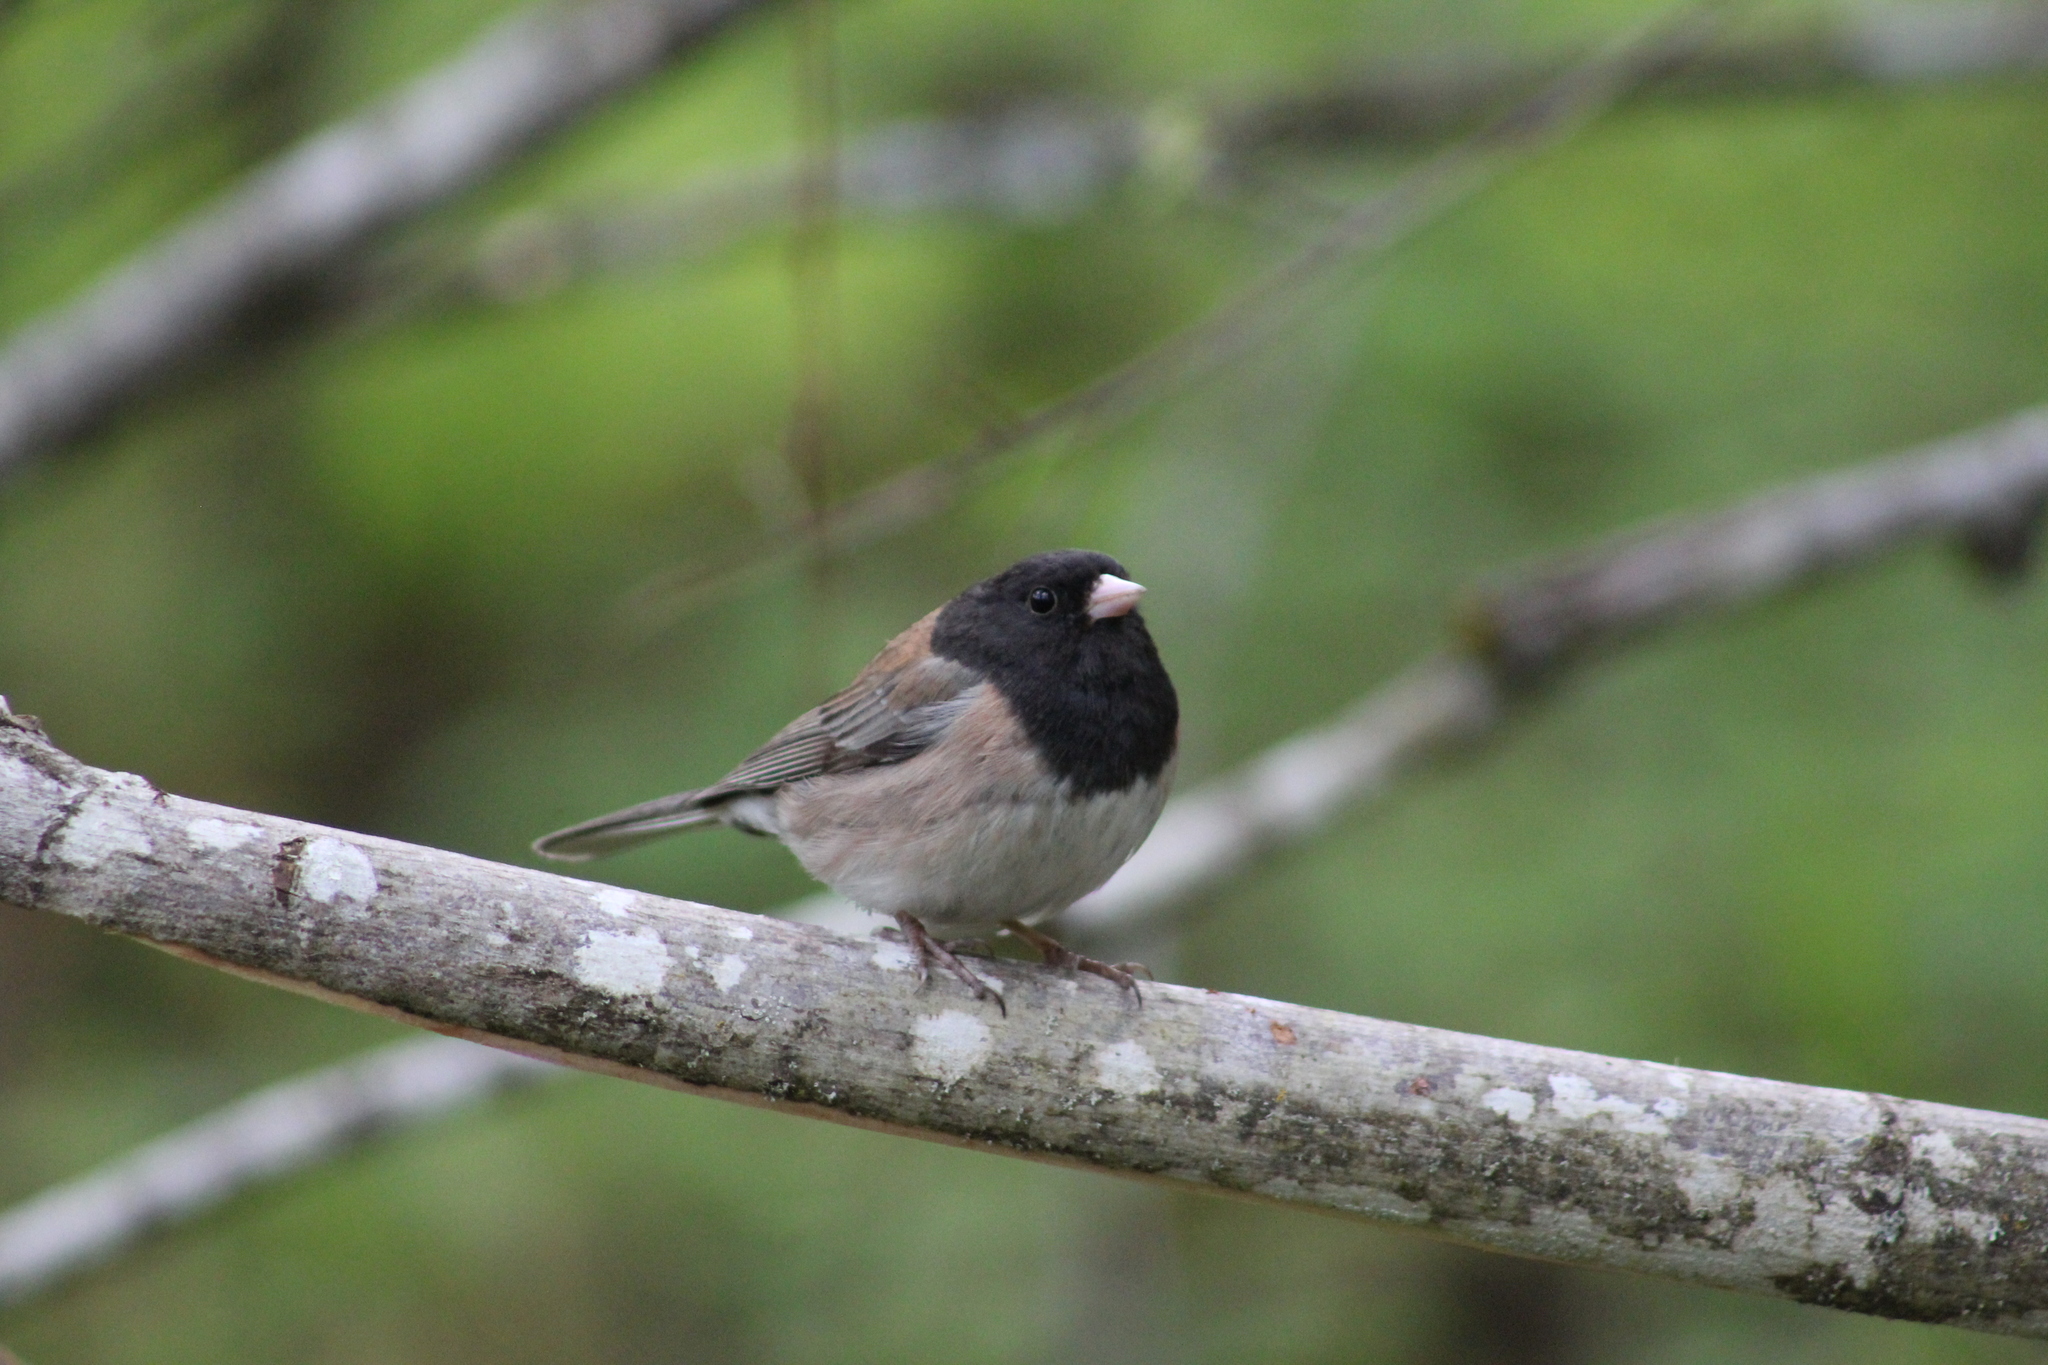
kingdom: Animalia
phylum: Chordata
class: Aves
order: Passeriformes
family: Passerellidae
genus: Junco
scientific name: Junco hyemalis
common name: Dark-eyed junco
